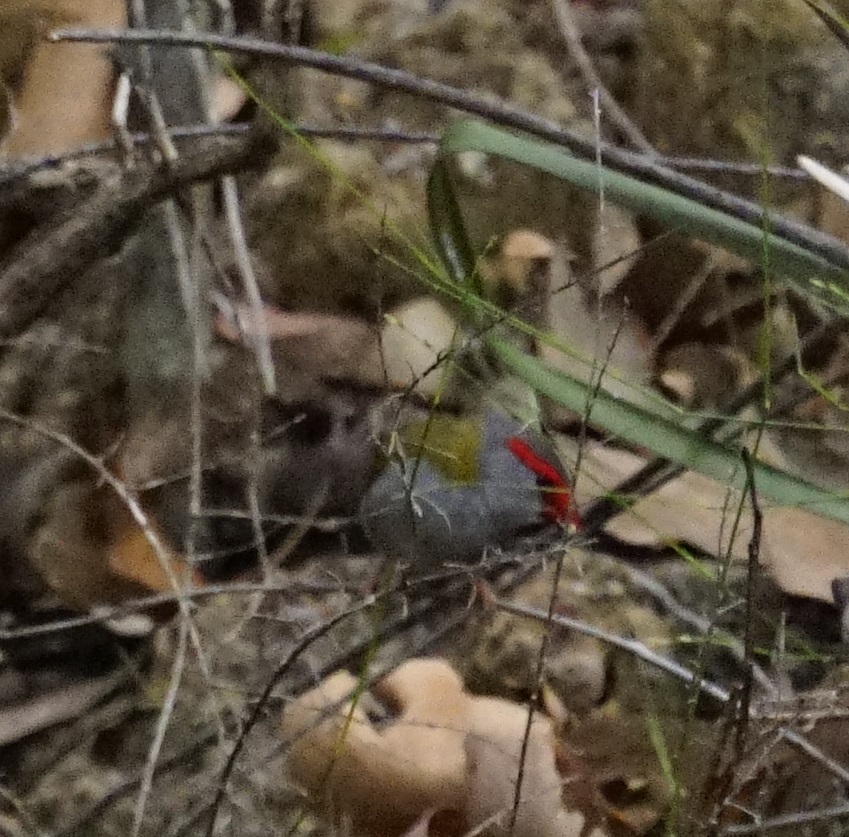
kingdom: Animalia
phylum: Chordata
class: Aves
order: Passeriformes
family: Estrildidae
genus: Neochmia
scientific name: Neochmia temporalis
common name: Red-browed finch
